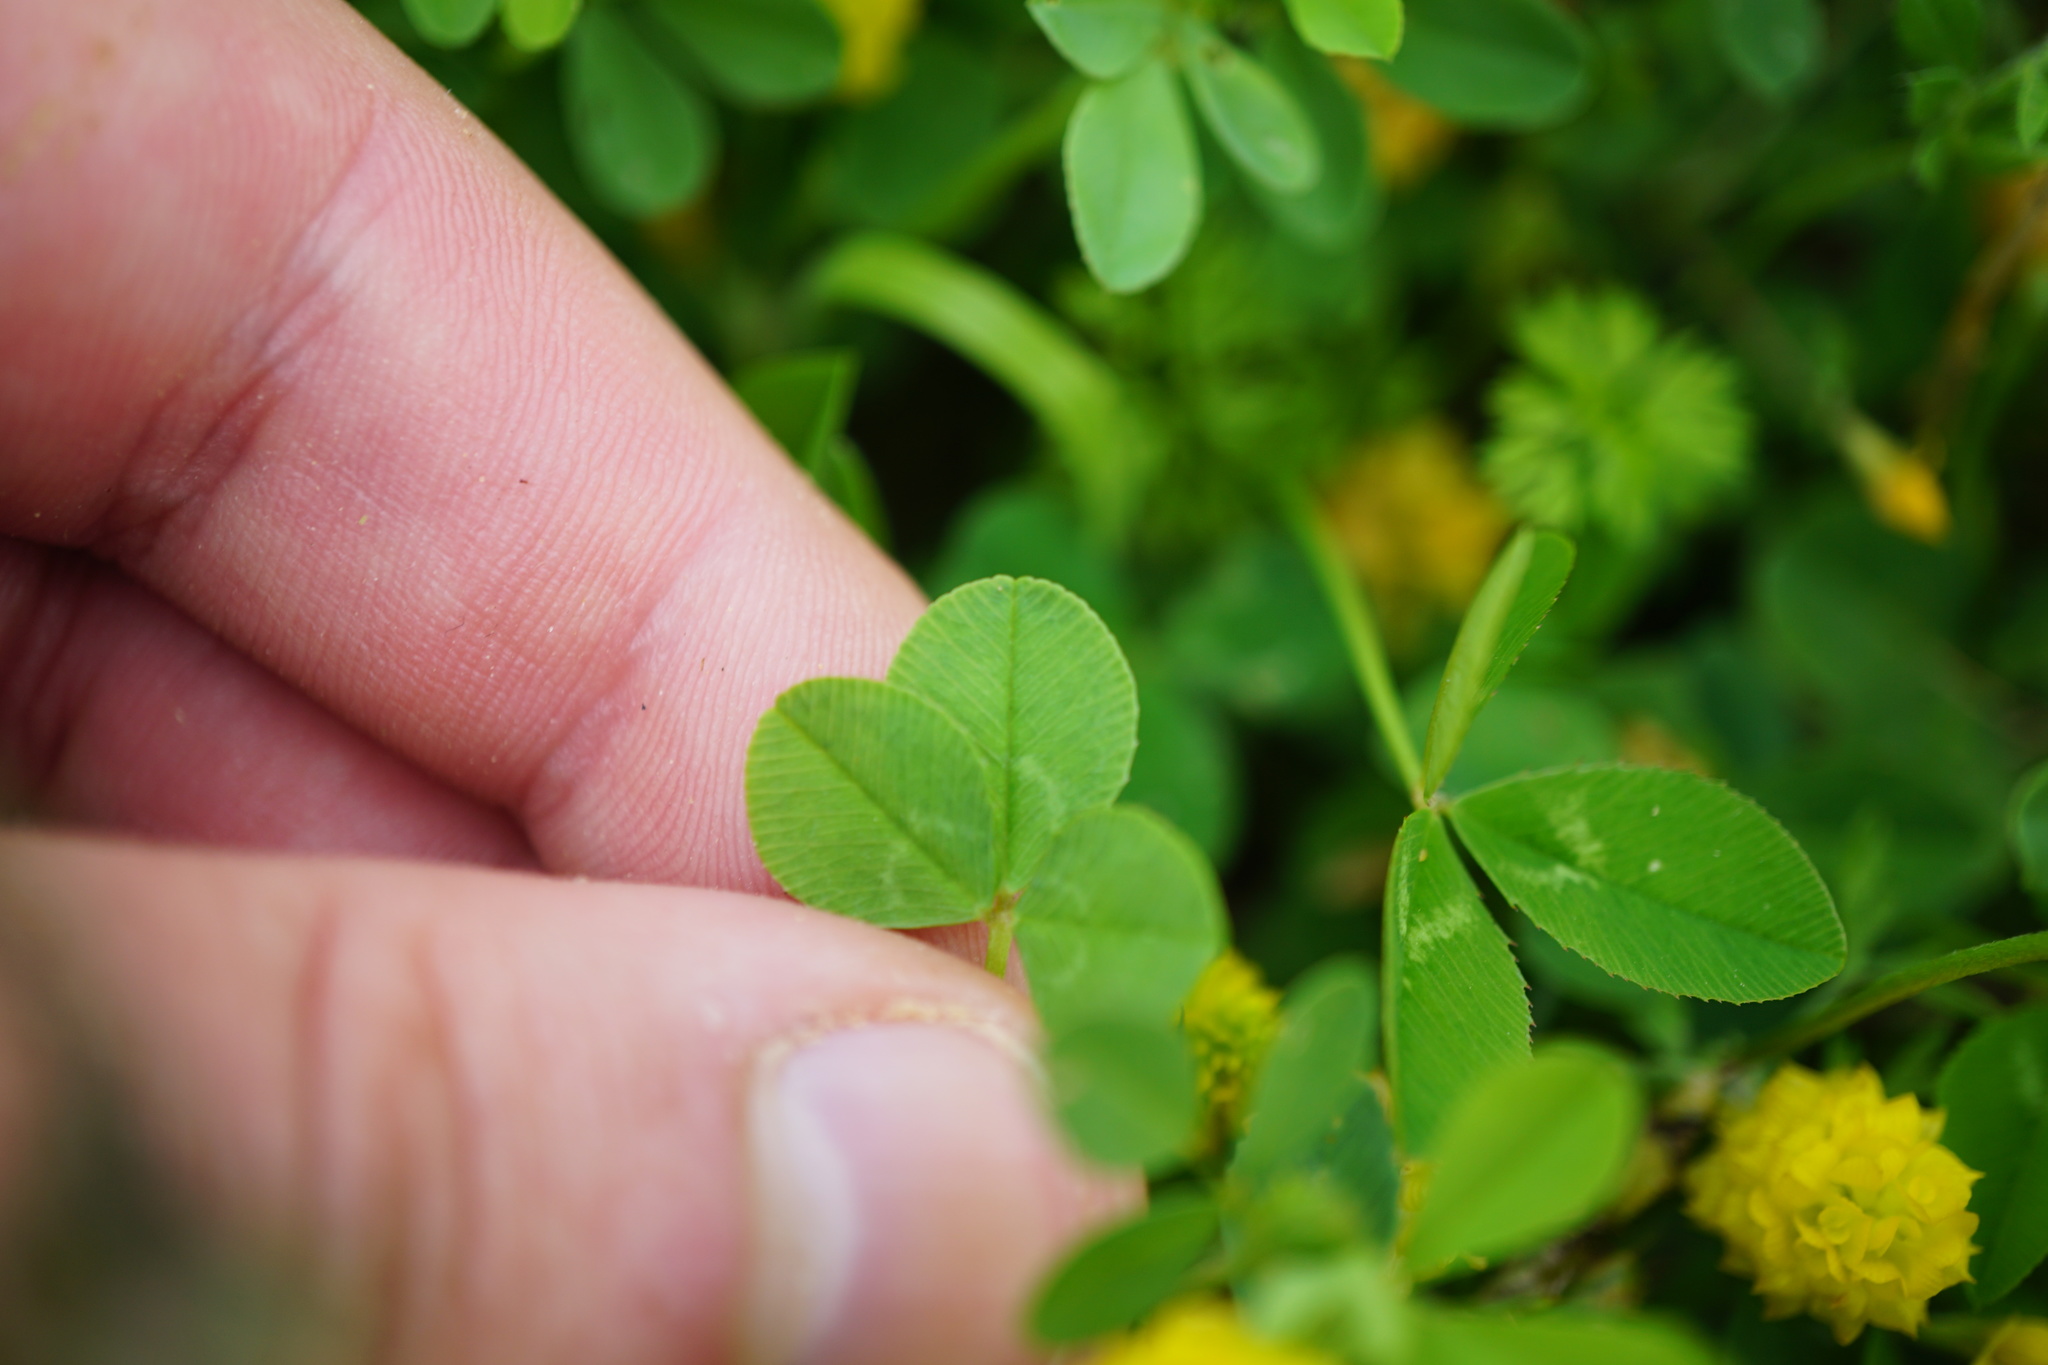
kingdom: Plantae
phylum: Tracheophyta
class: Magnoliopsida
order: Fabales
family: Fabaceae
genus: Trifolium
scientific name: Trifolium campestre
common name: Field clover
